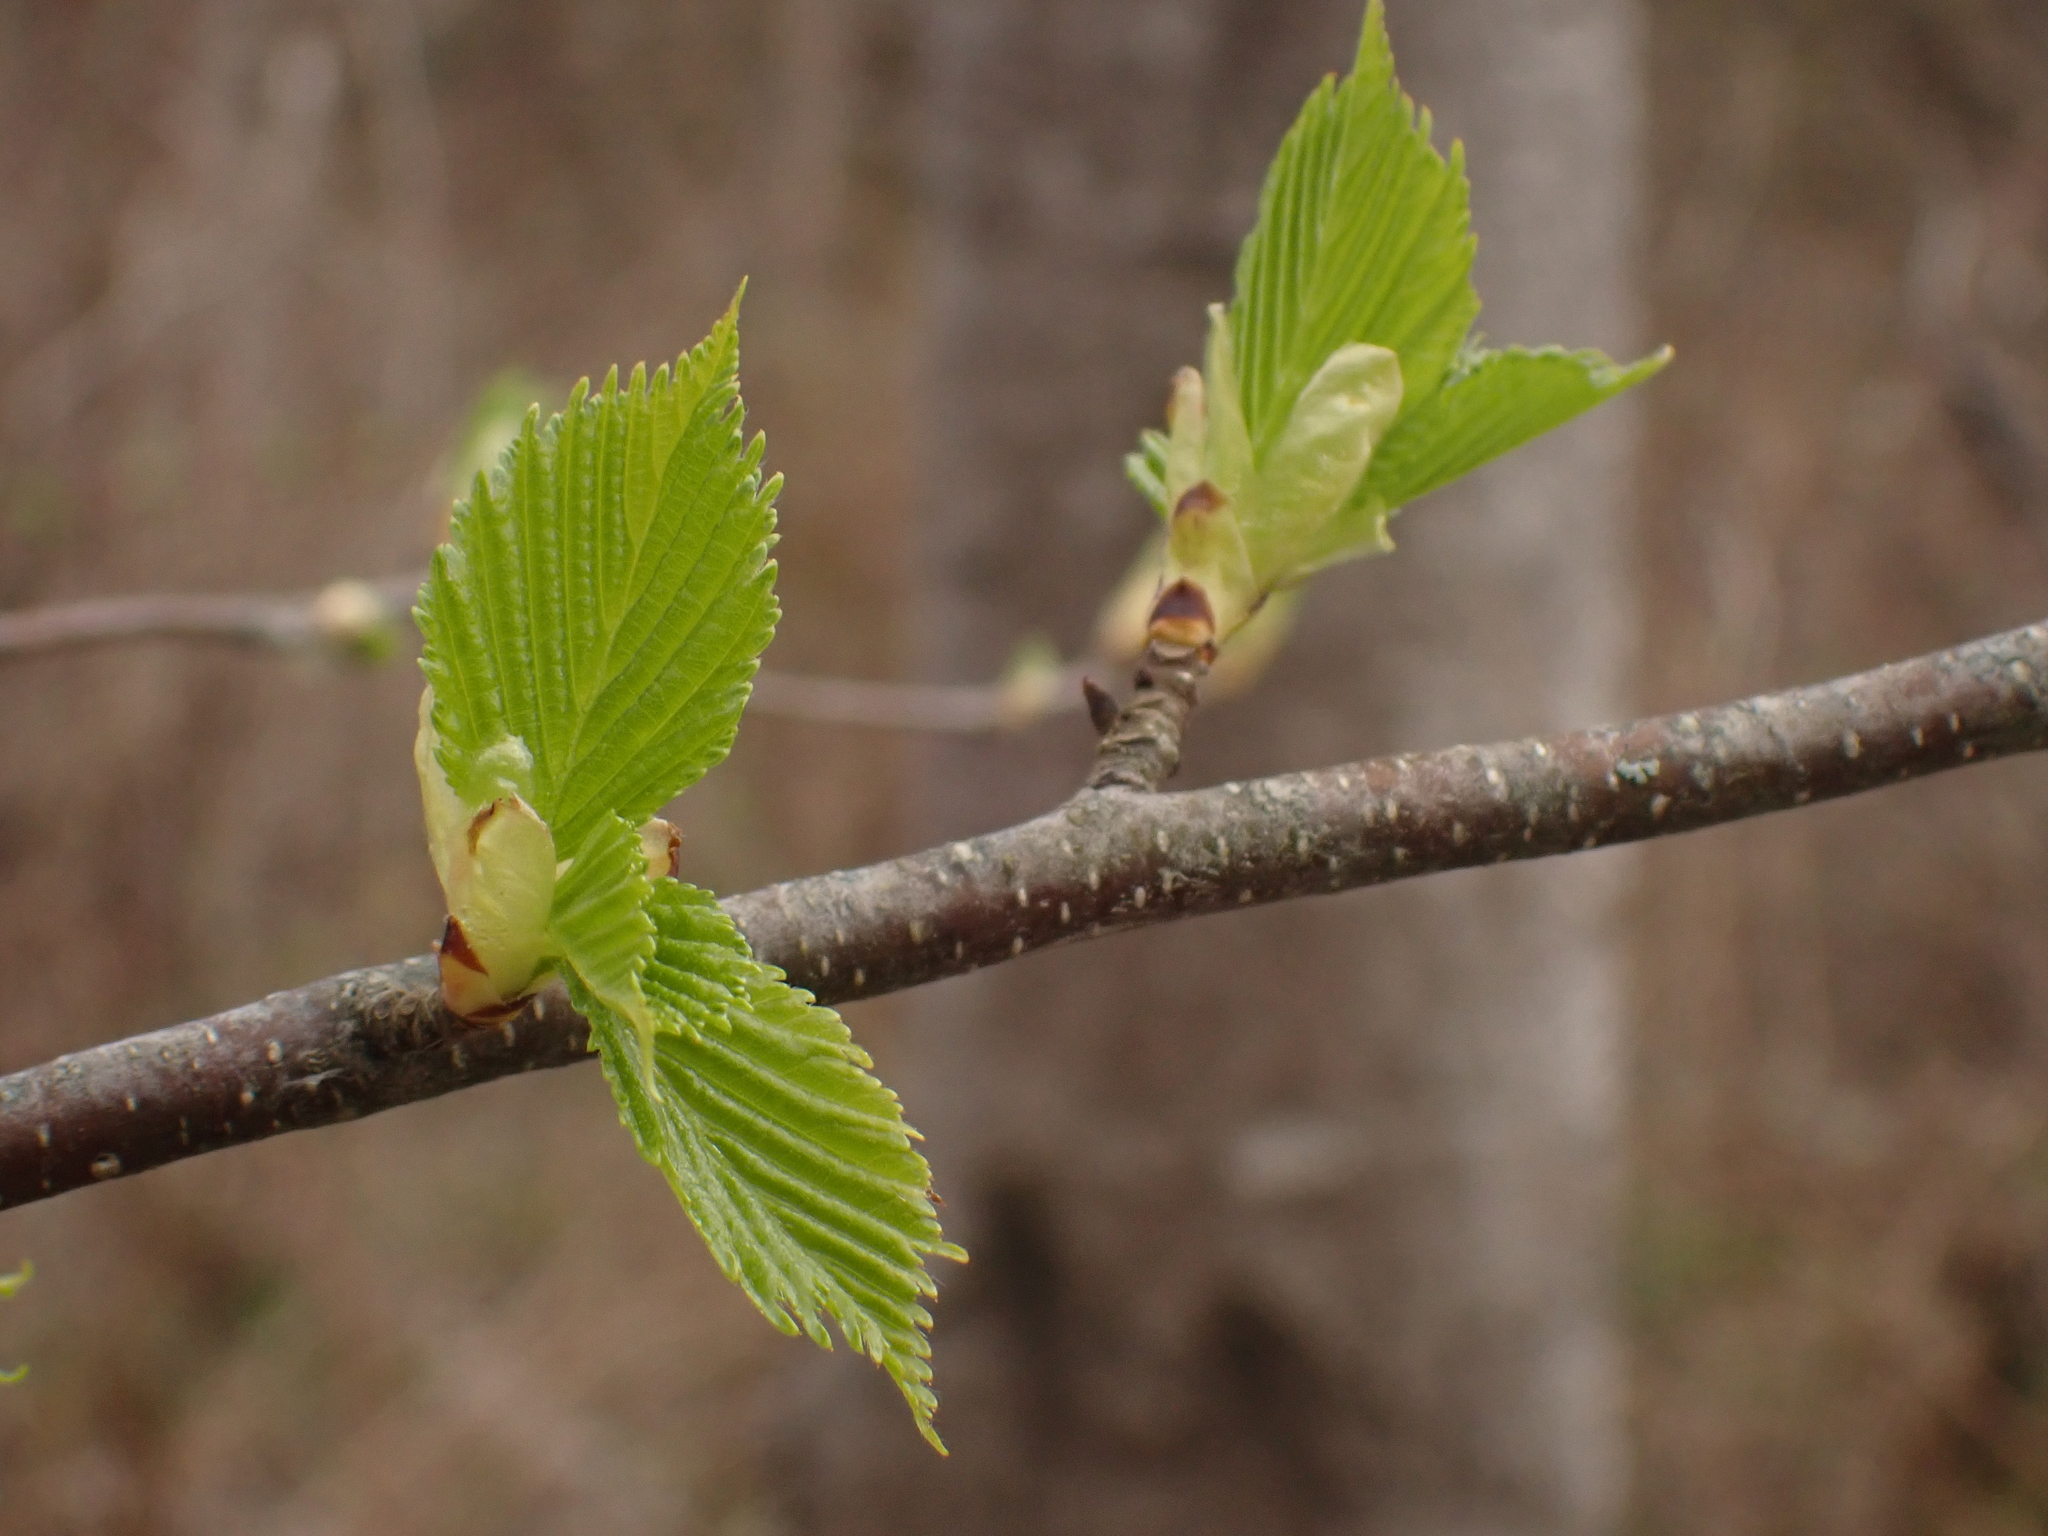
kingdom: Plantae
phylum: Tracheophyta
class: Magnoliopsida
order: Fagales
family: Betulaceae
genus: Betula
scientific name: Betula papyrifera
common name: Paper birch
